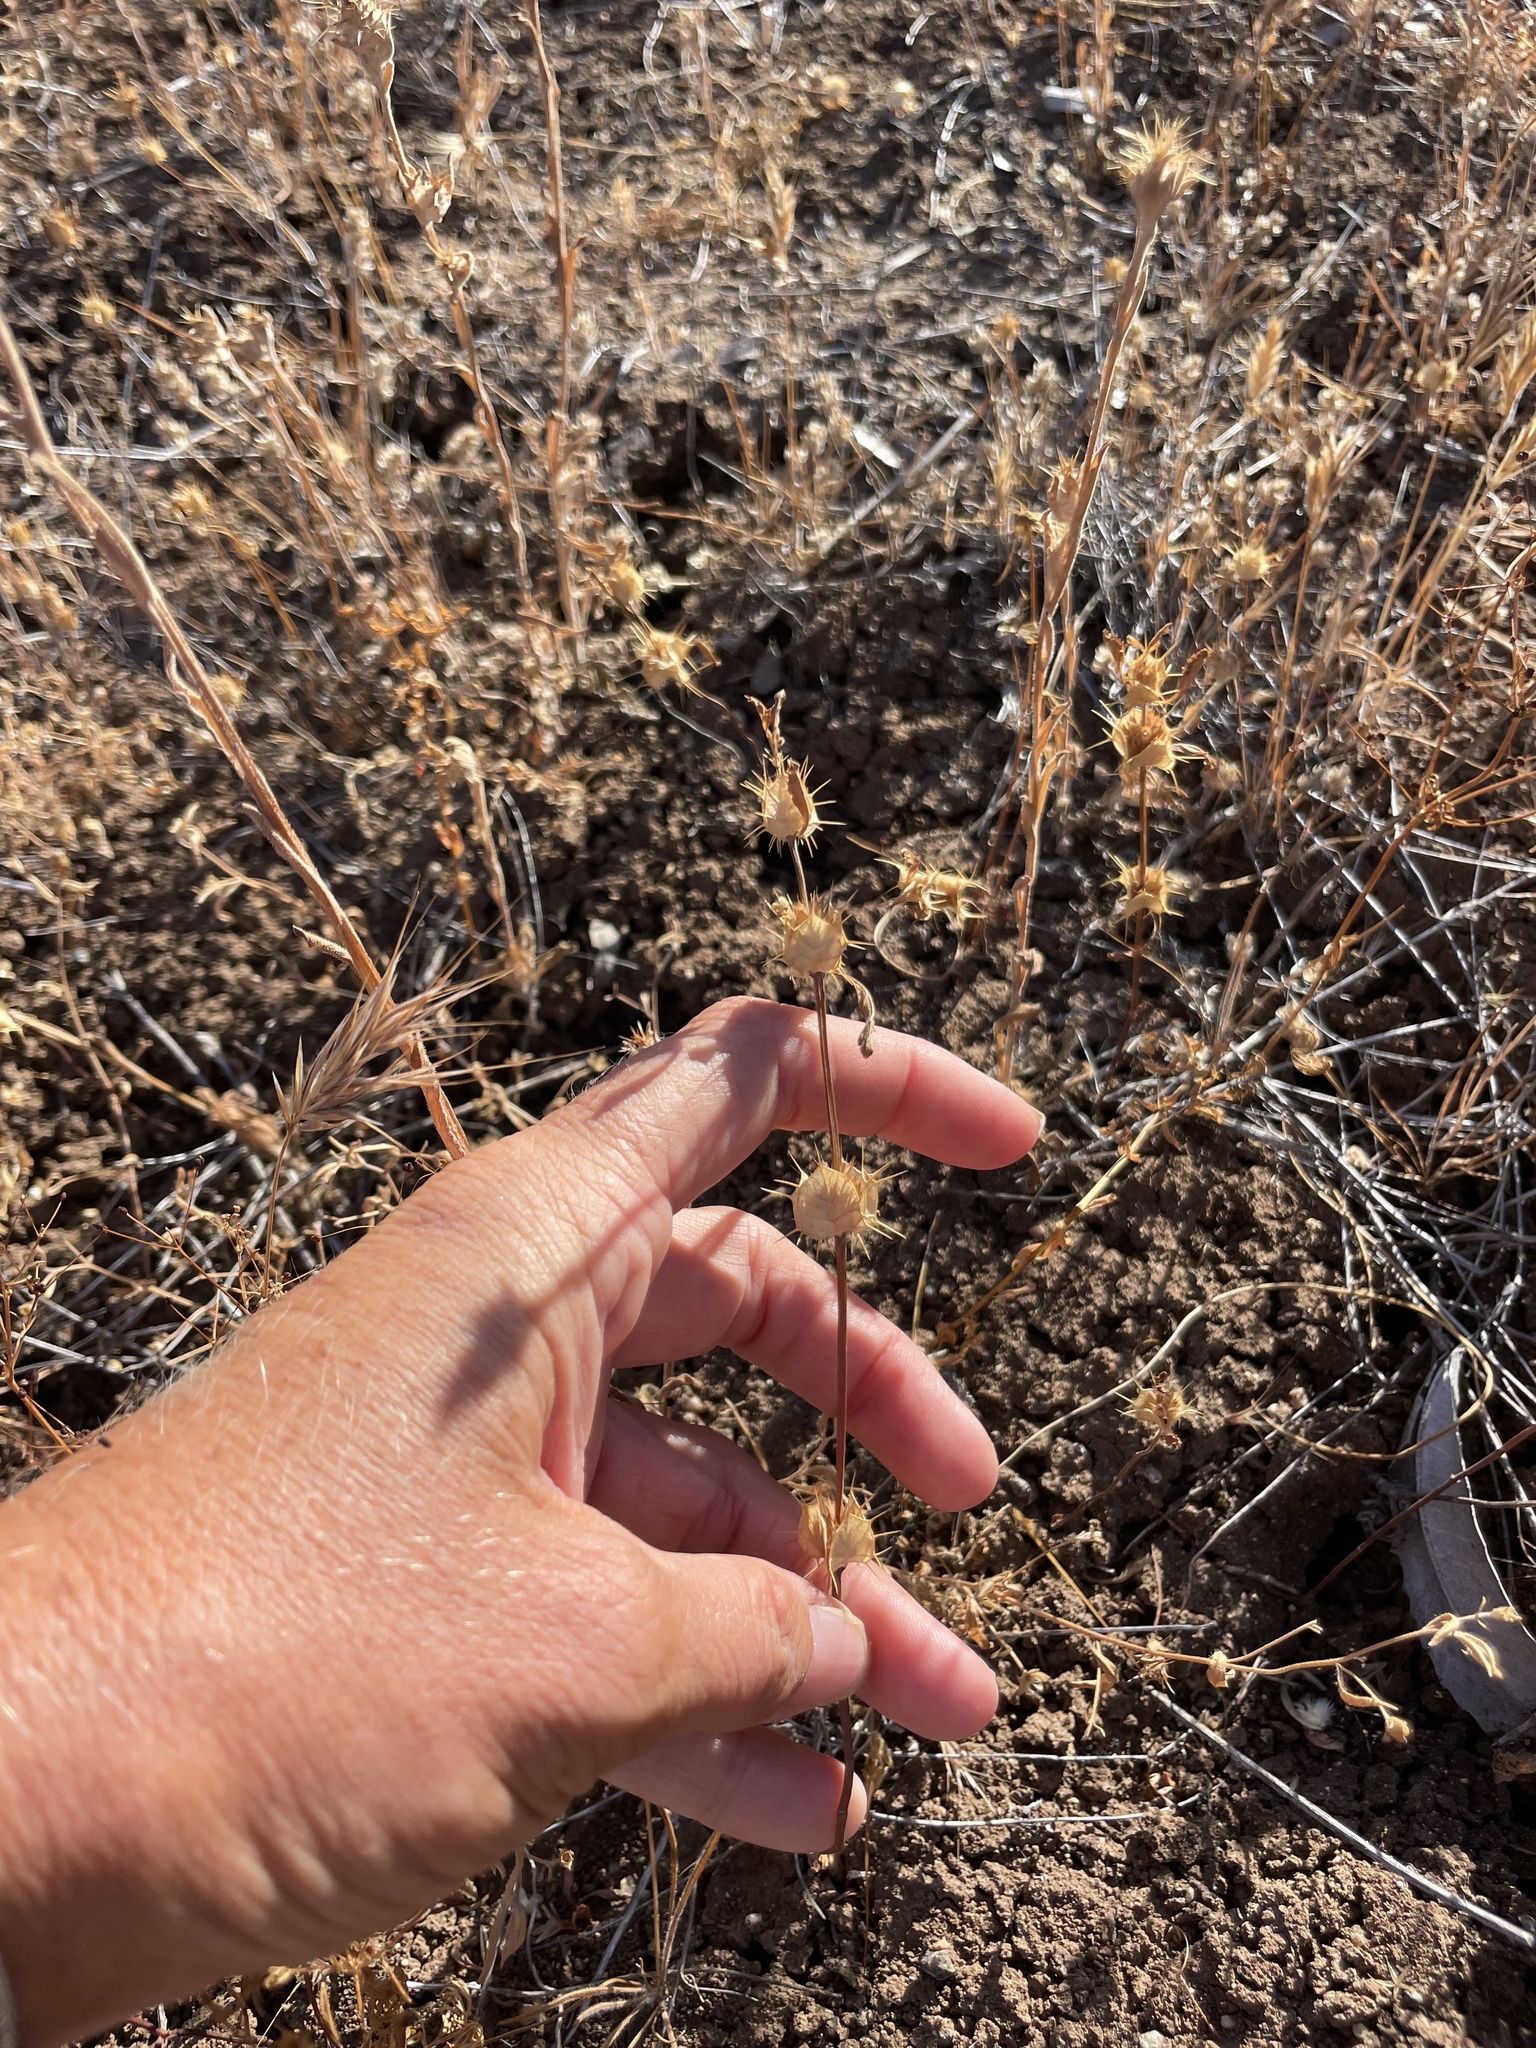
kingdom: Plantae
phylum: Tracheophyta
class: Magnoliopsida
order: Lamiales
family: Lamiaceae
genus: Acanthomintha
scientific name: Acanthomintha ilicifolia
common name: San diego thorn-mint
